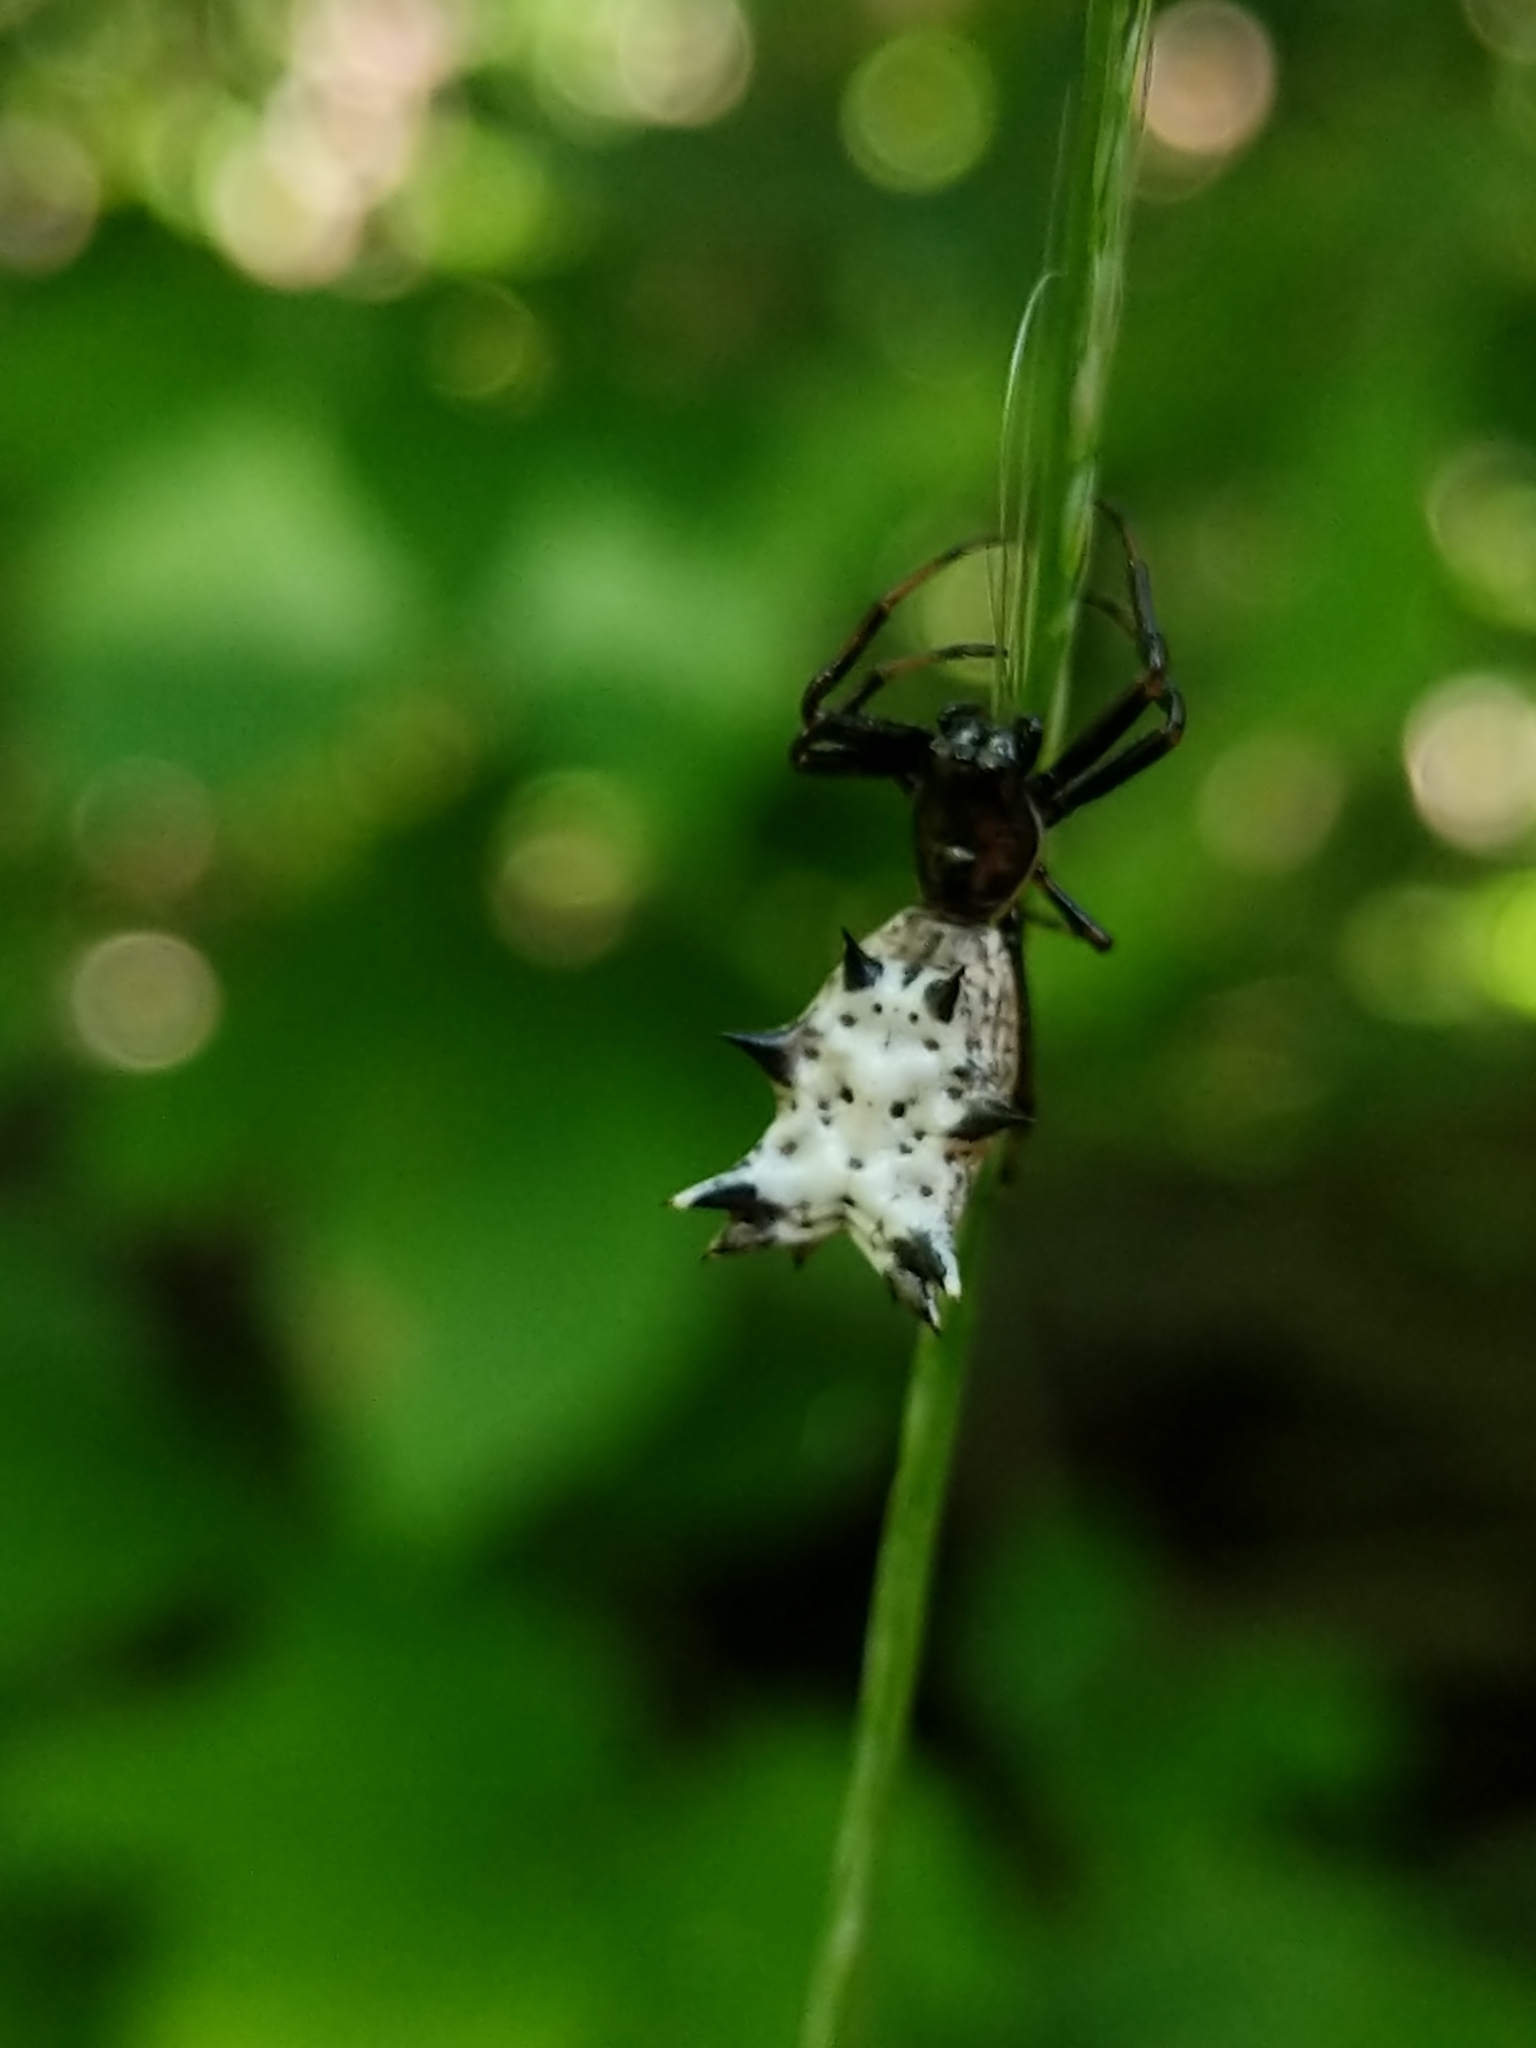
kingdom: Animalia
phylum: Arthropoda
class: Arachnida
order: Araneae
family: Araneidae
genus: Micrathena
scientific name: Micrathena gracilis
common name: Orb weavers
